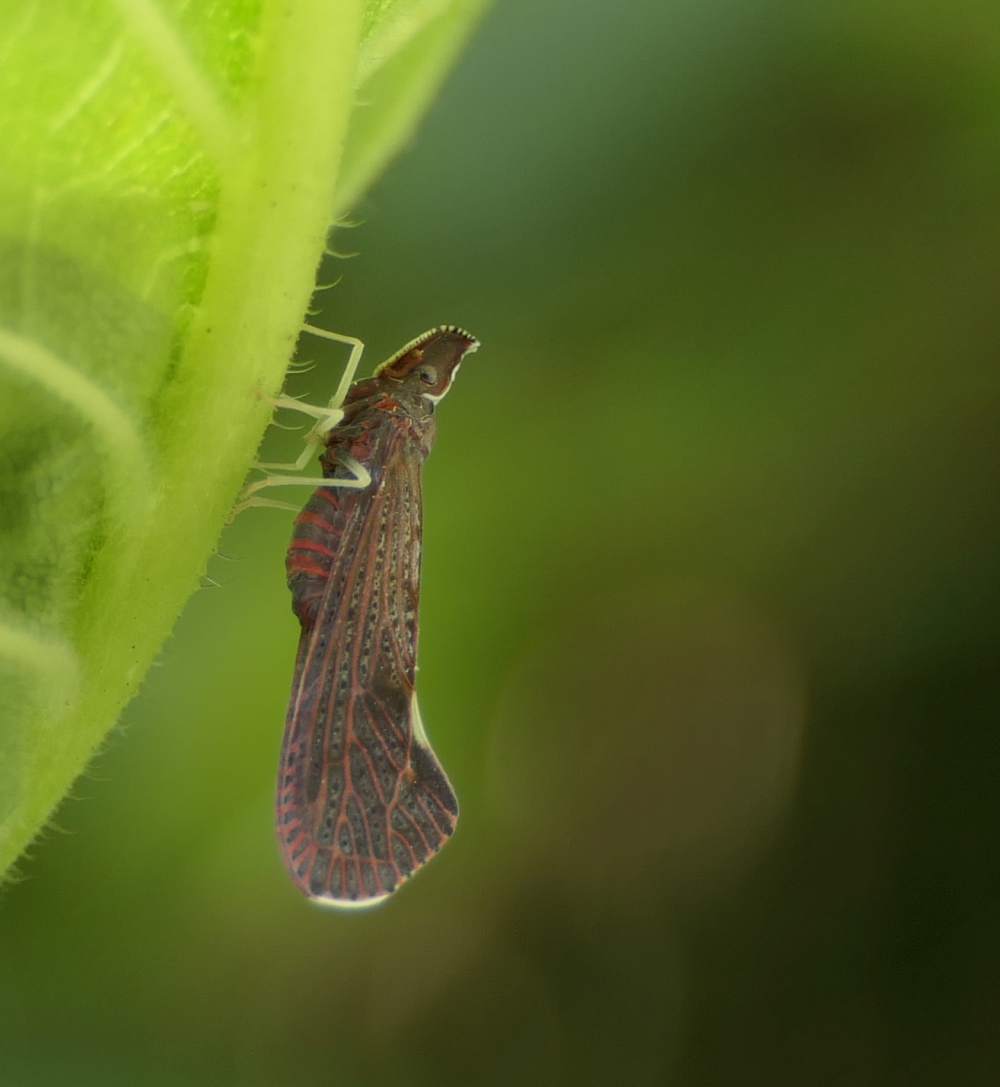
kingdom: Animalia
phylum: Arthropoda
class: Insecta
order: Hemiptera
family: Derbidae
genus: Apache
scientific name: Apache degeeri
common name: Red-fanned planthopper
